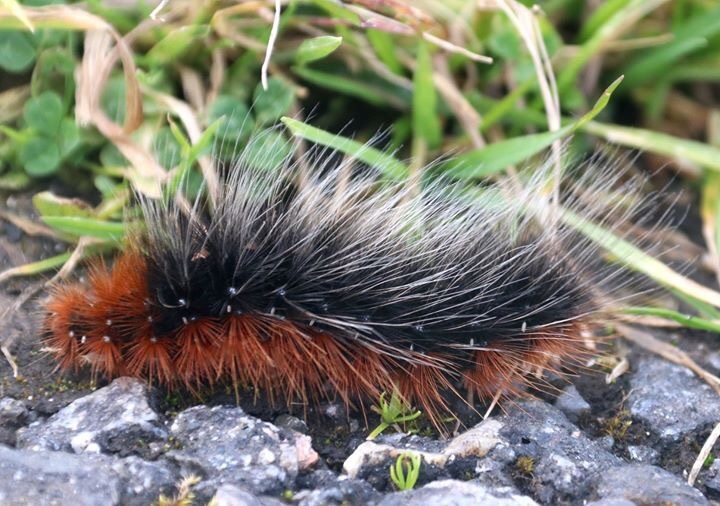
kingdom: Animalia
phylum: Arthropoda
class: Insecta
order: Lepidoptera
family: Erebidae
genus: Arctia
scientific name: Arctia caja
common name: Garden tiger
